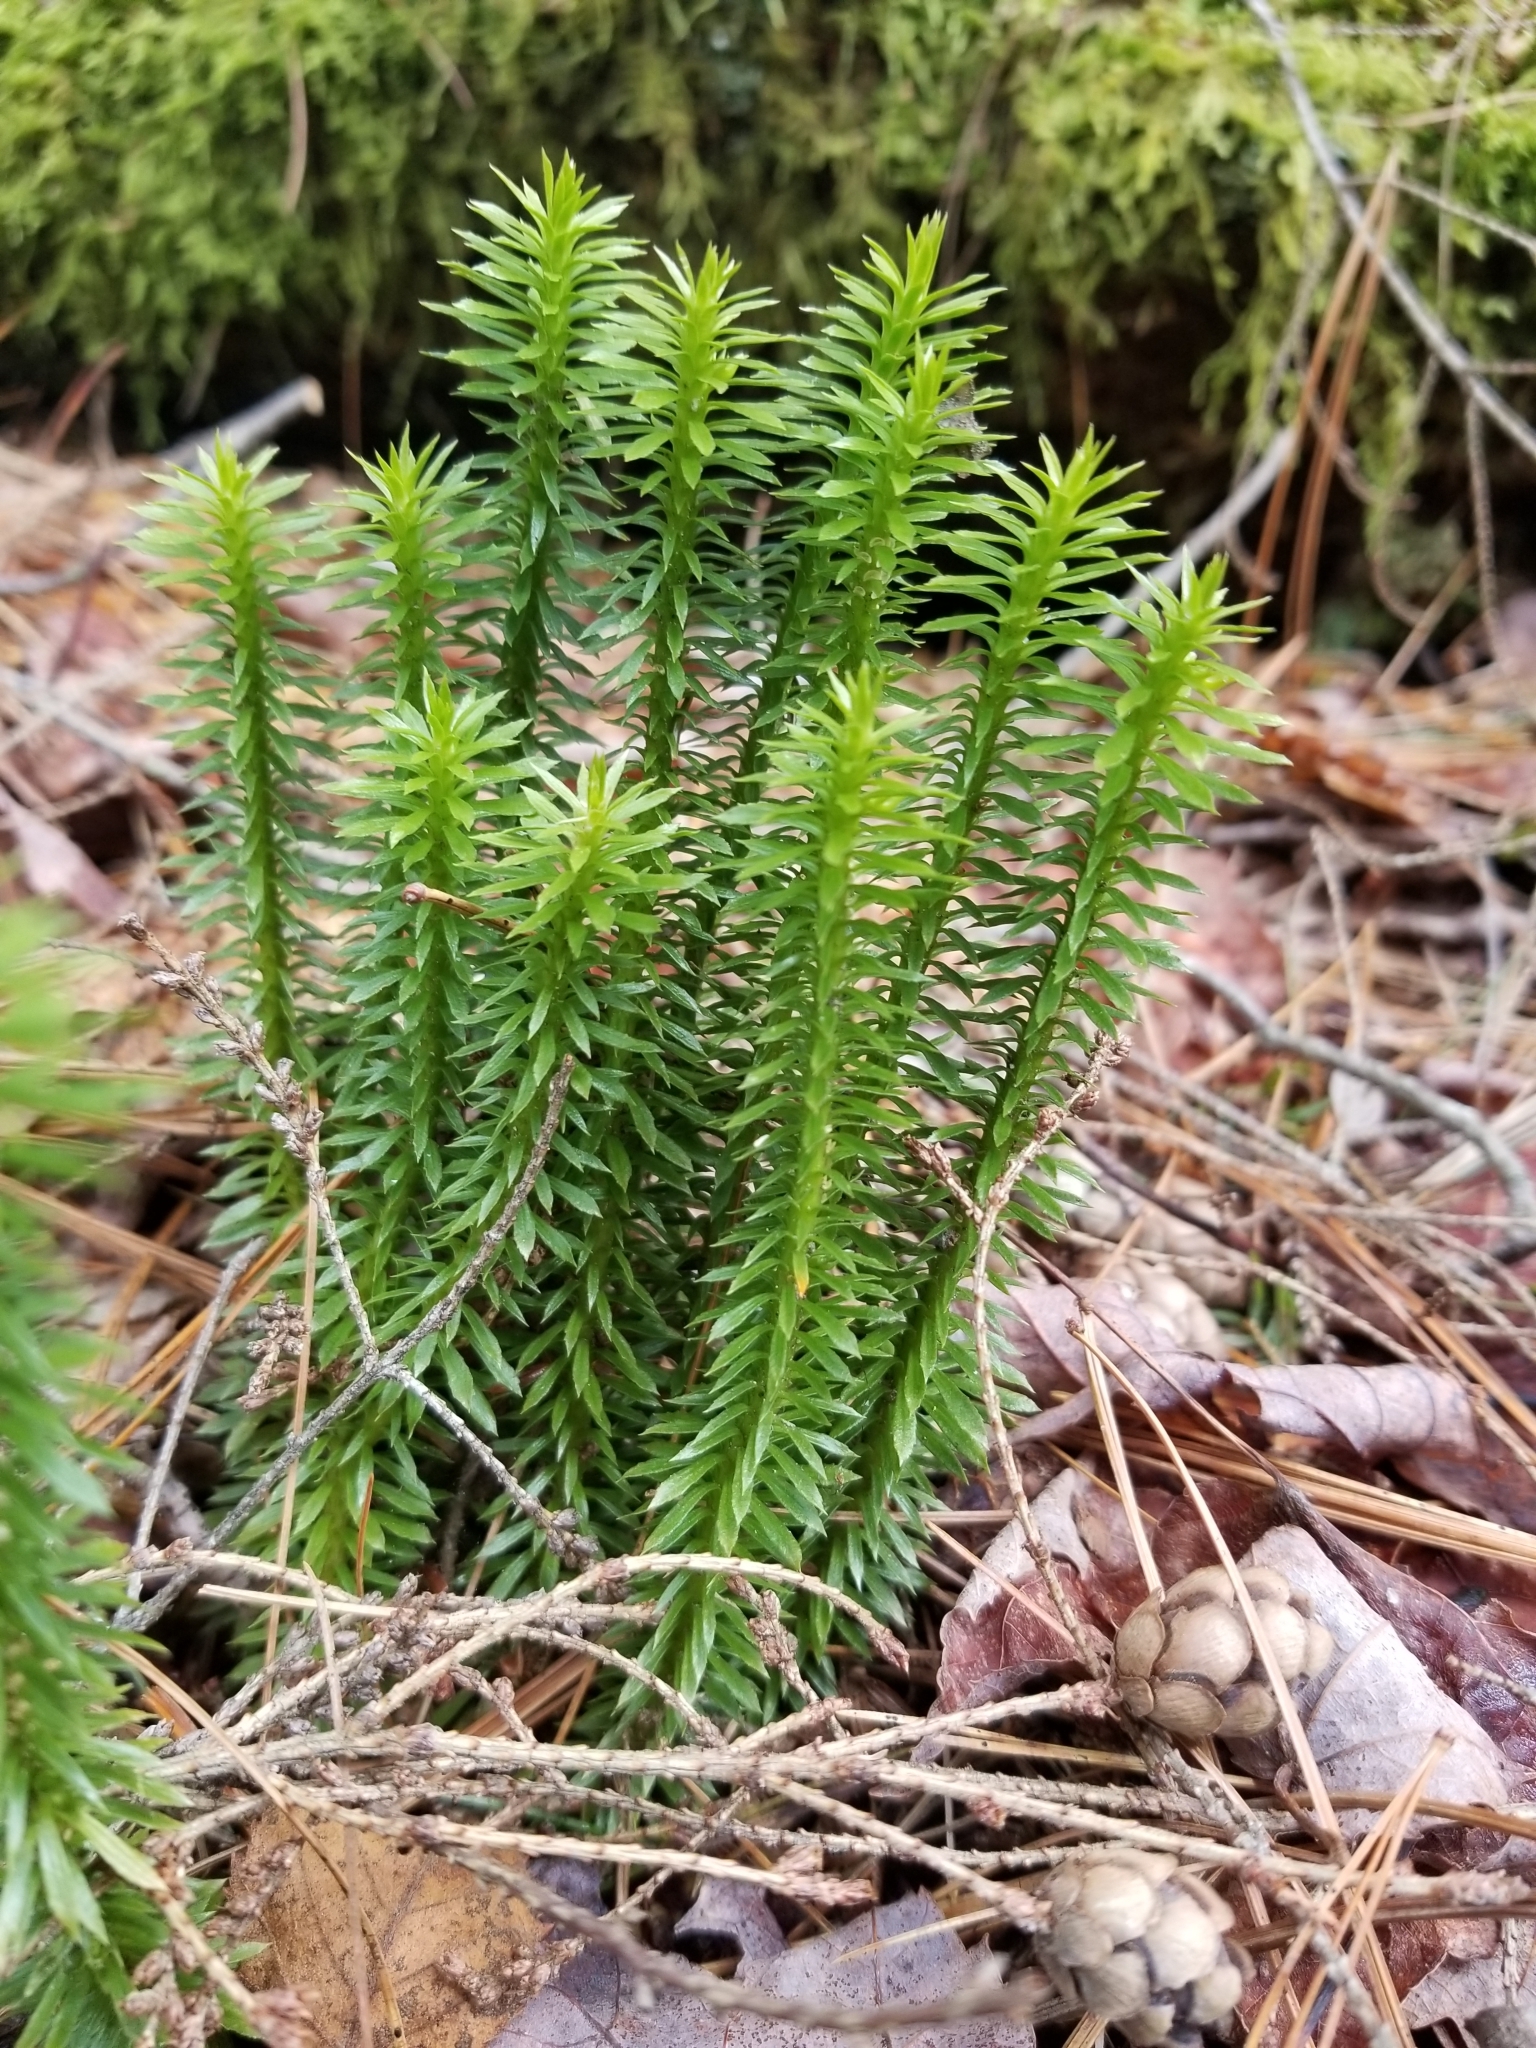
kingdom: Plantae
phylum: Tracheophyta
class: Lycopodiopsida
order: Lycopodiales
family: Lycopodiaceae
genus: Huperzia
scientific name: Huperzia lucidula
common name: Shining clubmoss
